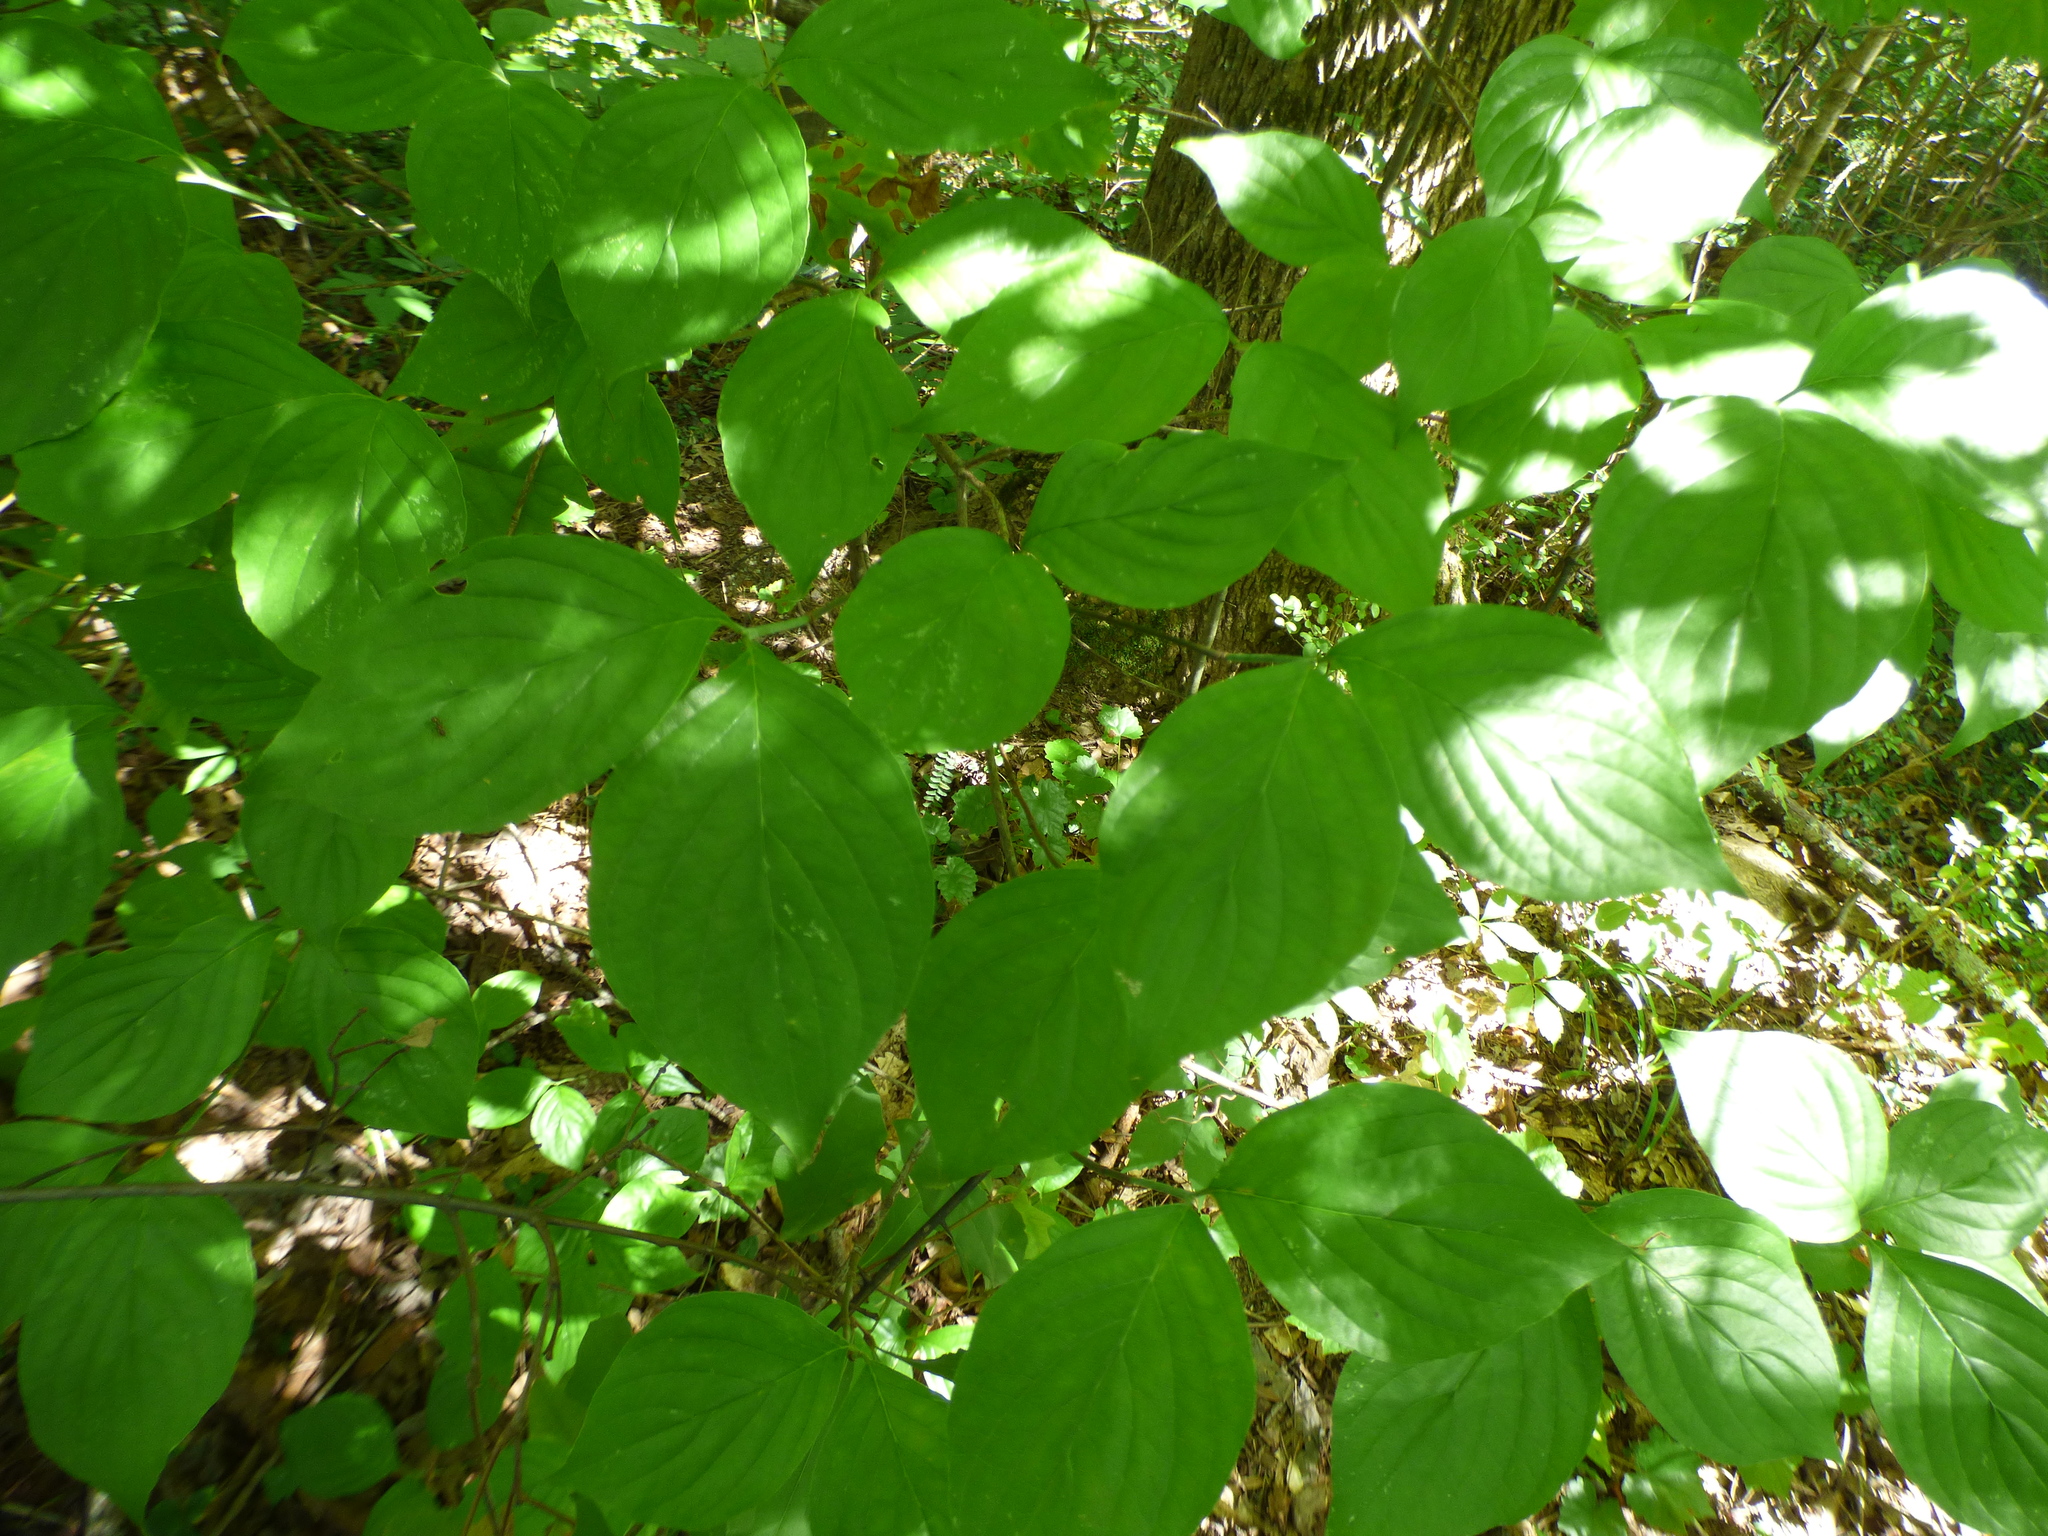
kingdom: Plantae
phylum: Tracheophyta
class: Magnoliopsida
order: Cornales
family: Cornaceae
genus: Cornus
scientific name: Cornus florida
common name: Flowering dogwood
